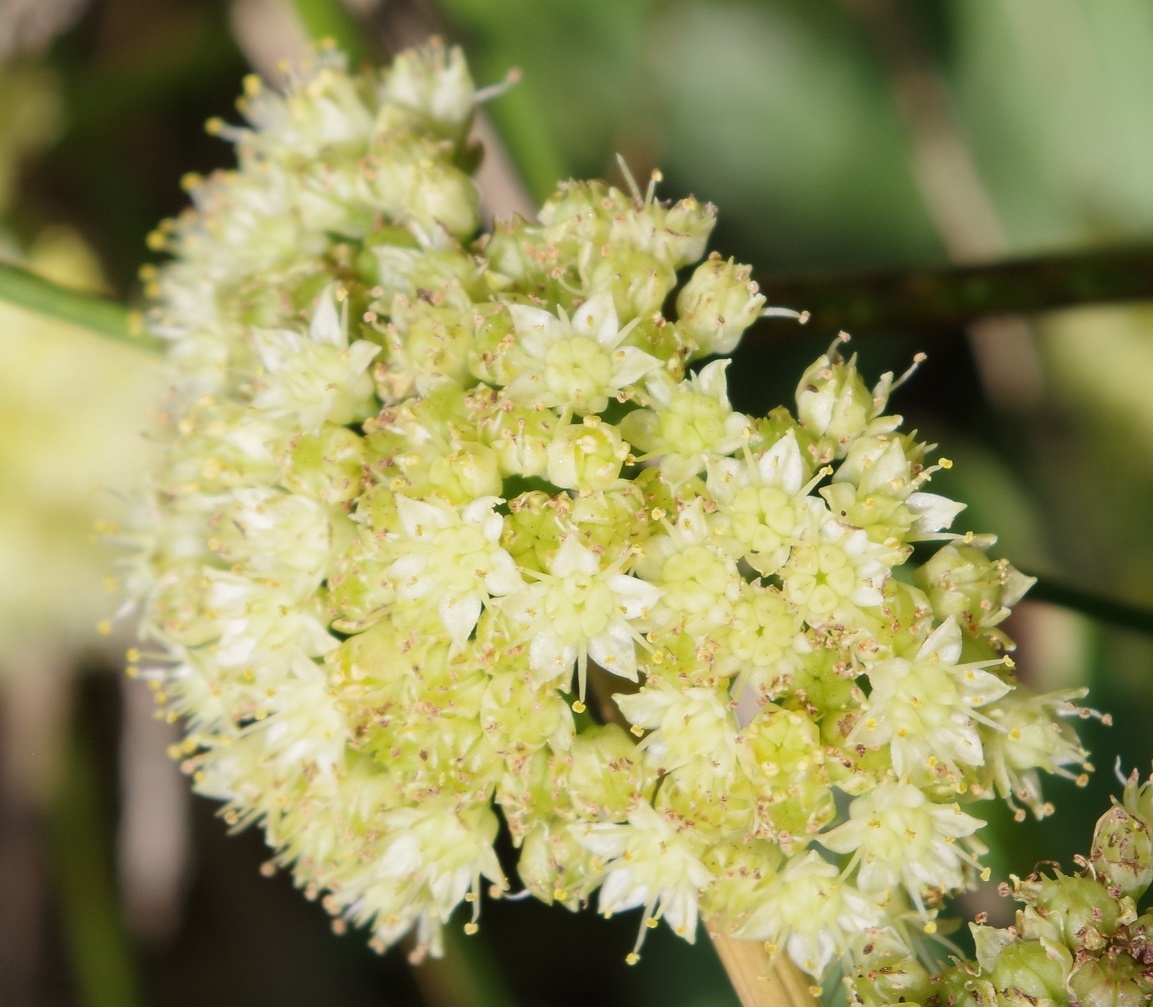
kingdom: Plantae
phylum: Tracheophyta
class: Magnoliopsida
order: Saxifragales
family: Crassulaceae
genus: Hylotelephium
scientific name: Hylotelephium maximum
